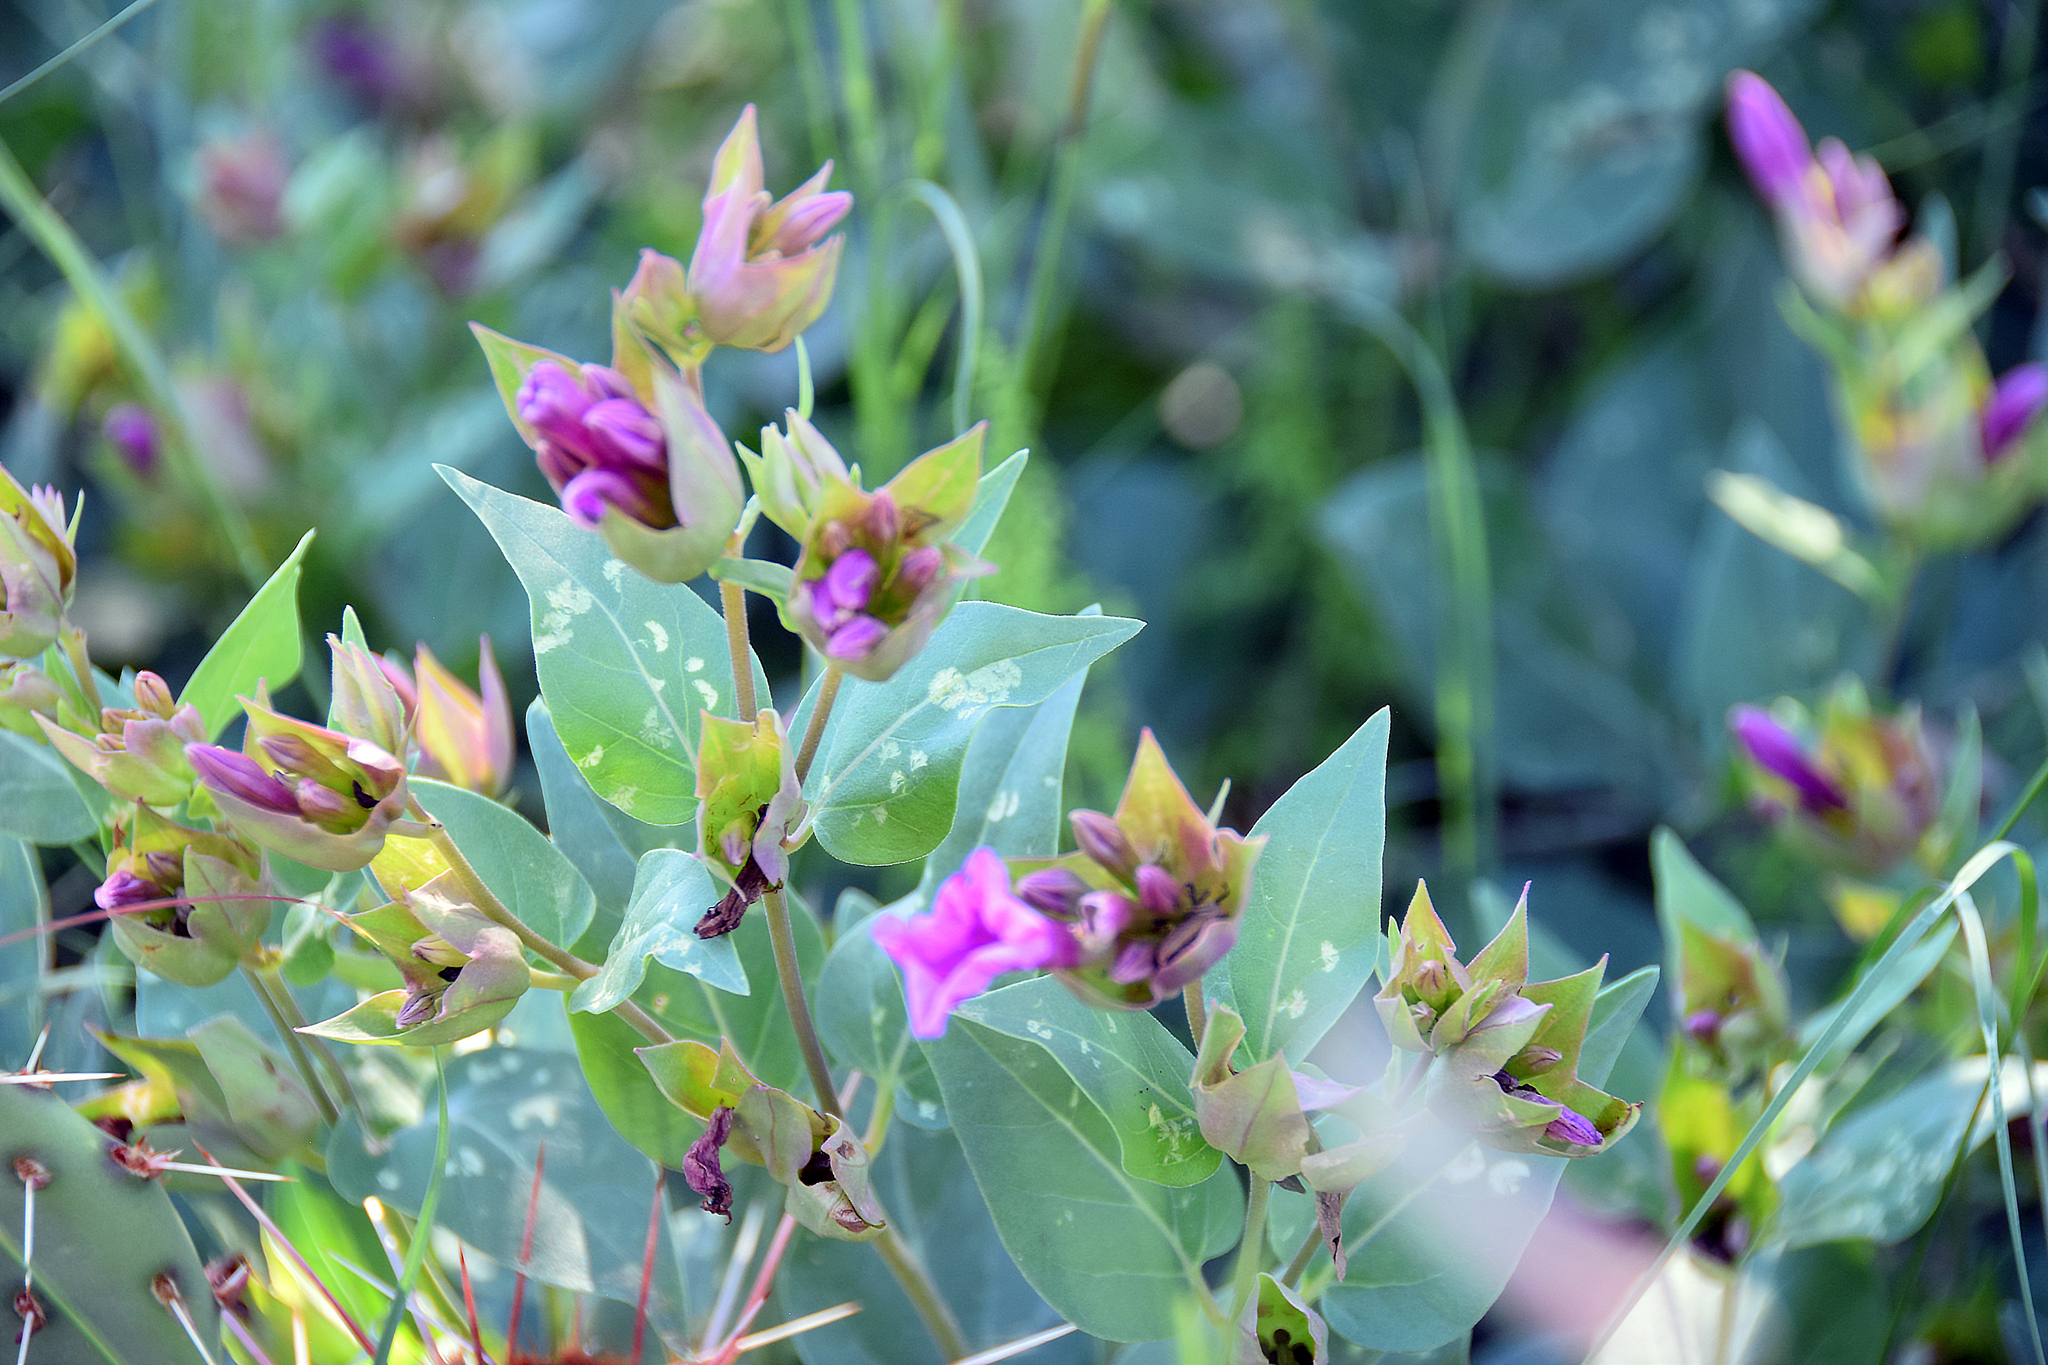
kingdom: Plantae
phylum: Tracheophyta
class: Magnoliopsida
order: Caryophyllales
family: Nyctaginaceae
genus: Mirabilis
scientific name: Mirabilis multiflora
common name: Froebel's four-o'clock
